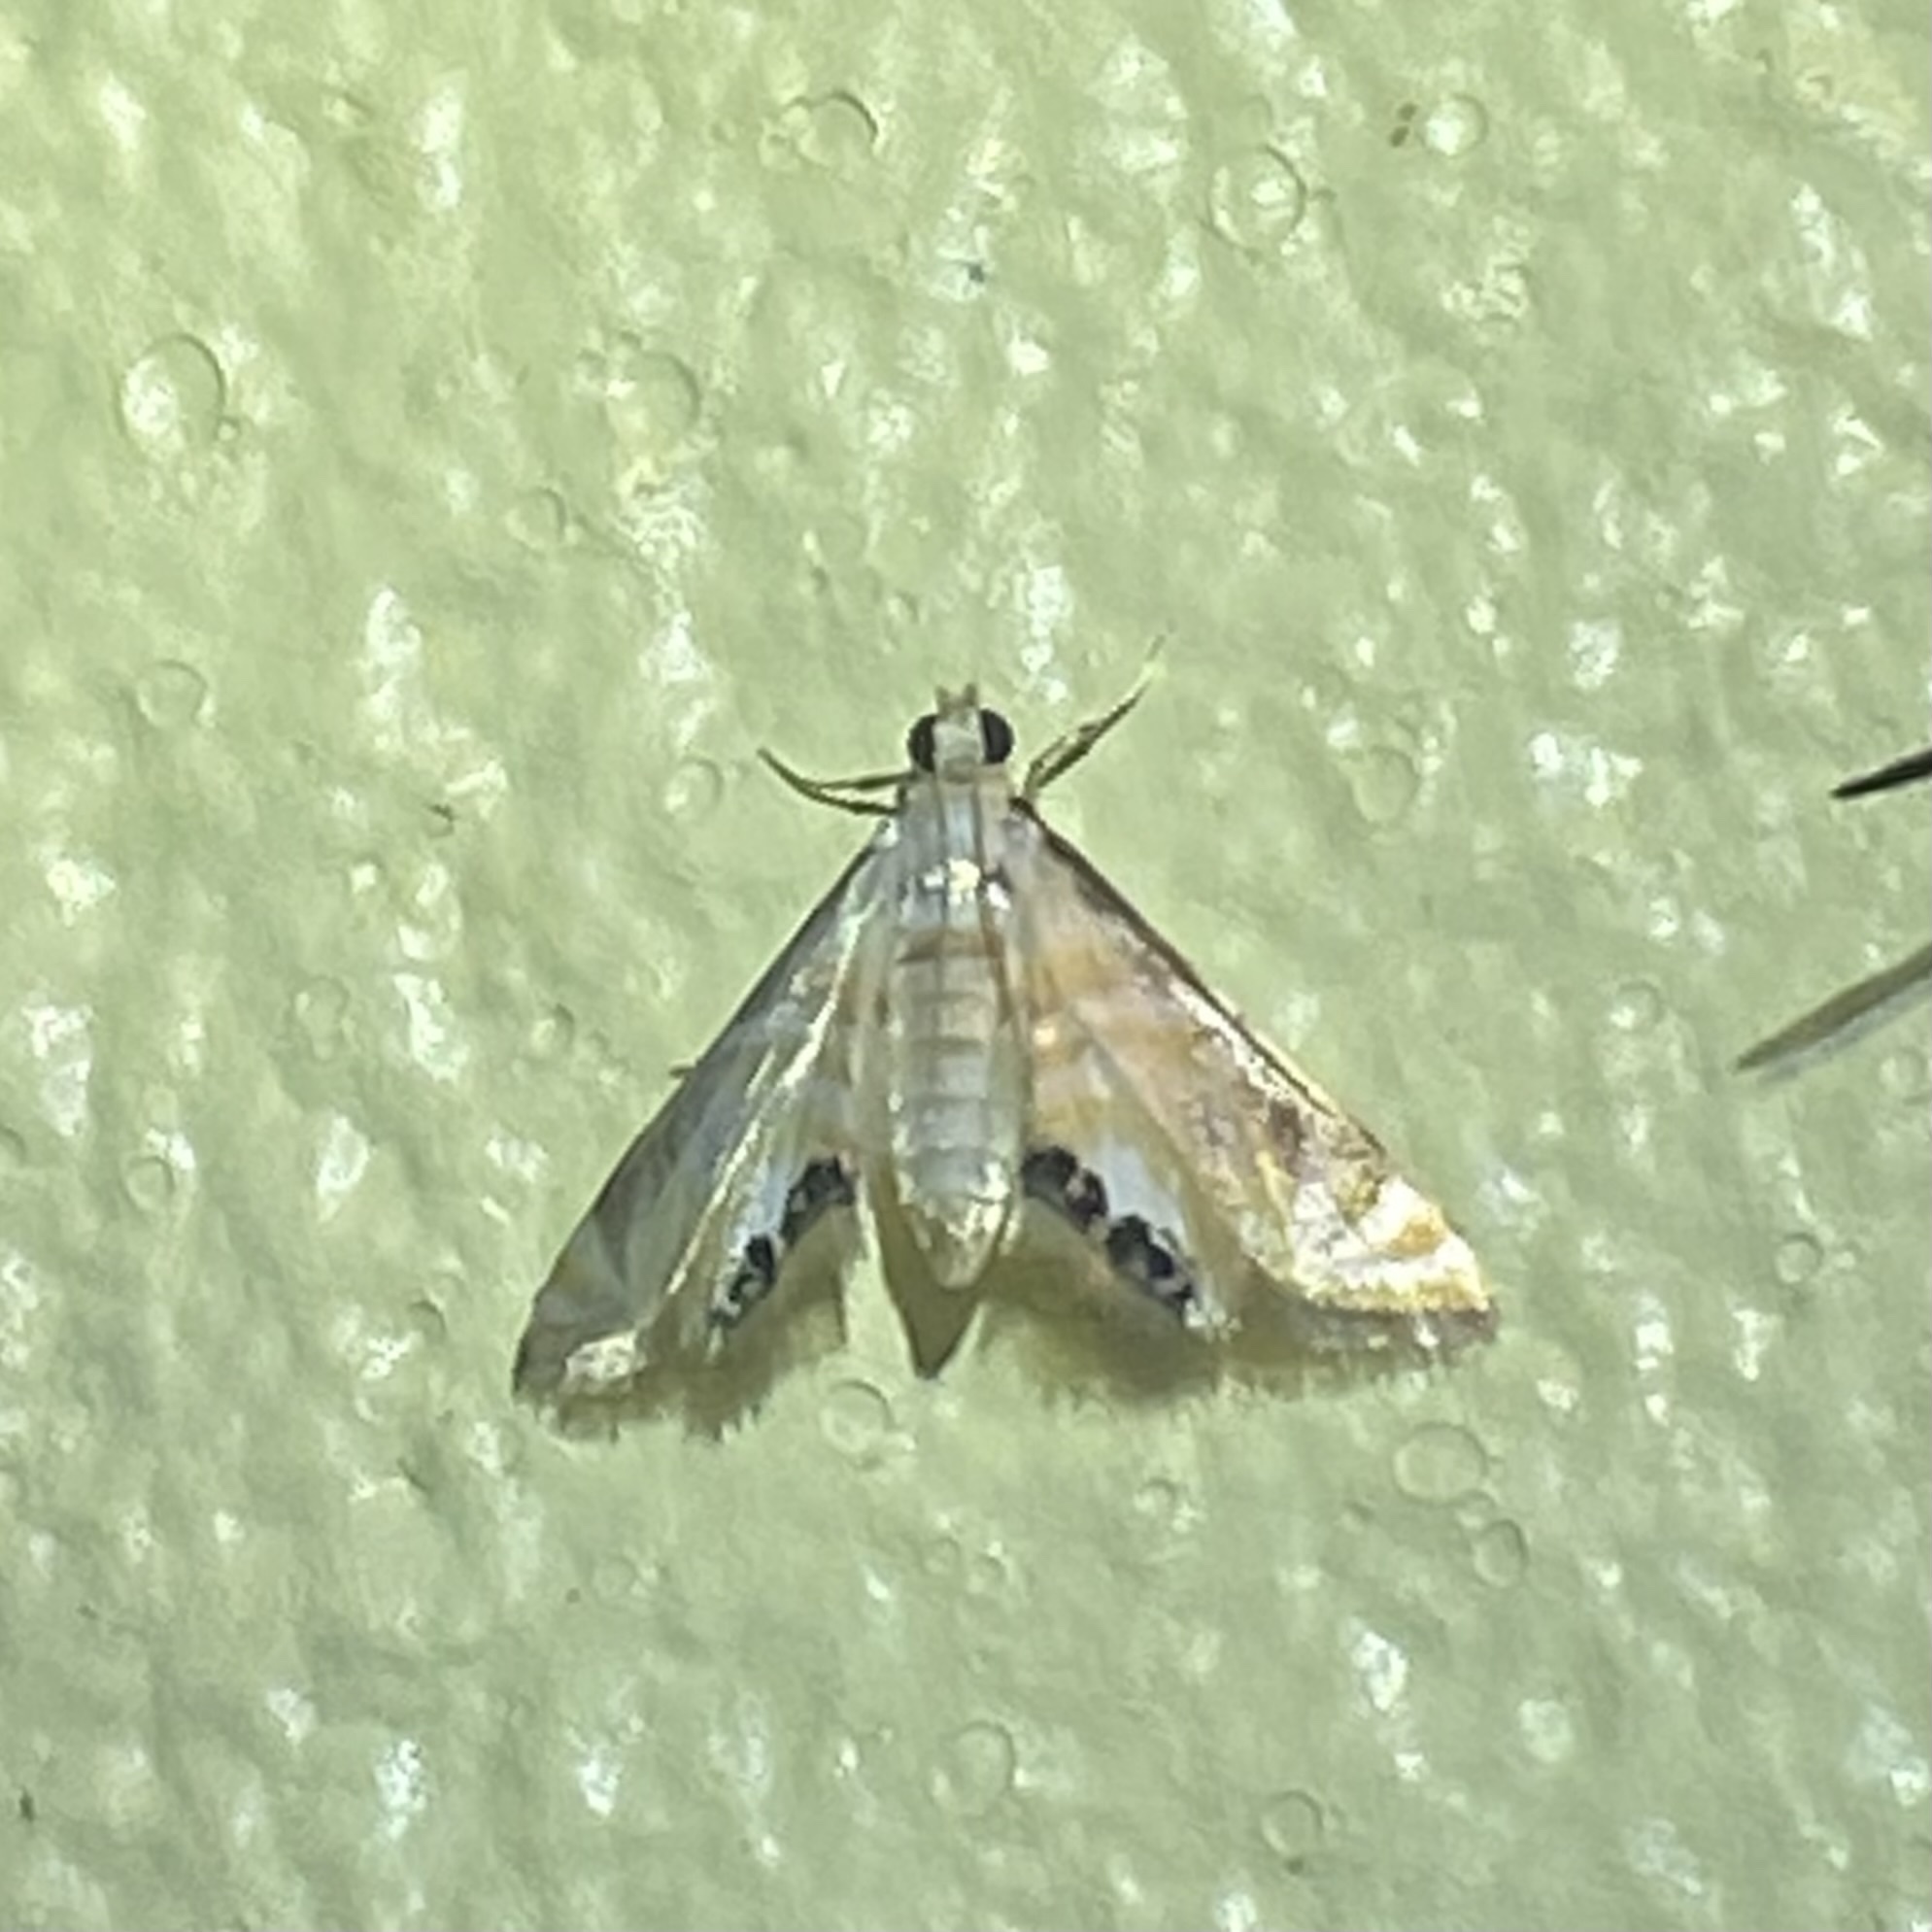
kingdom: Animalia
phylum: Arthropoda
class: Insecta
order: Lepidoptera
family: Crambidae
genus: Petrophila
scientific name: Petrophila opulentalis
